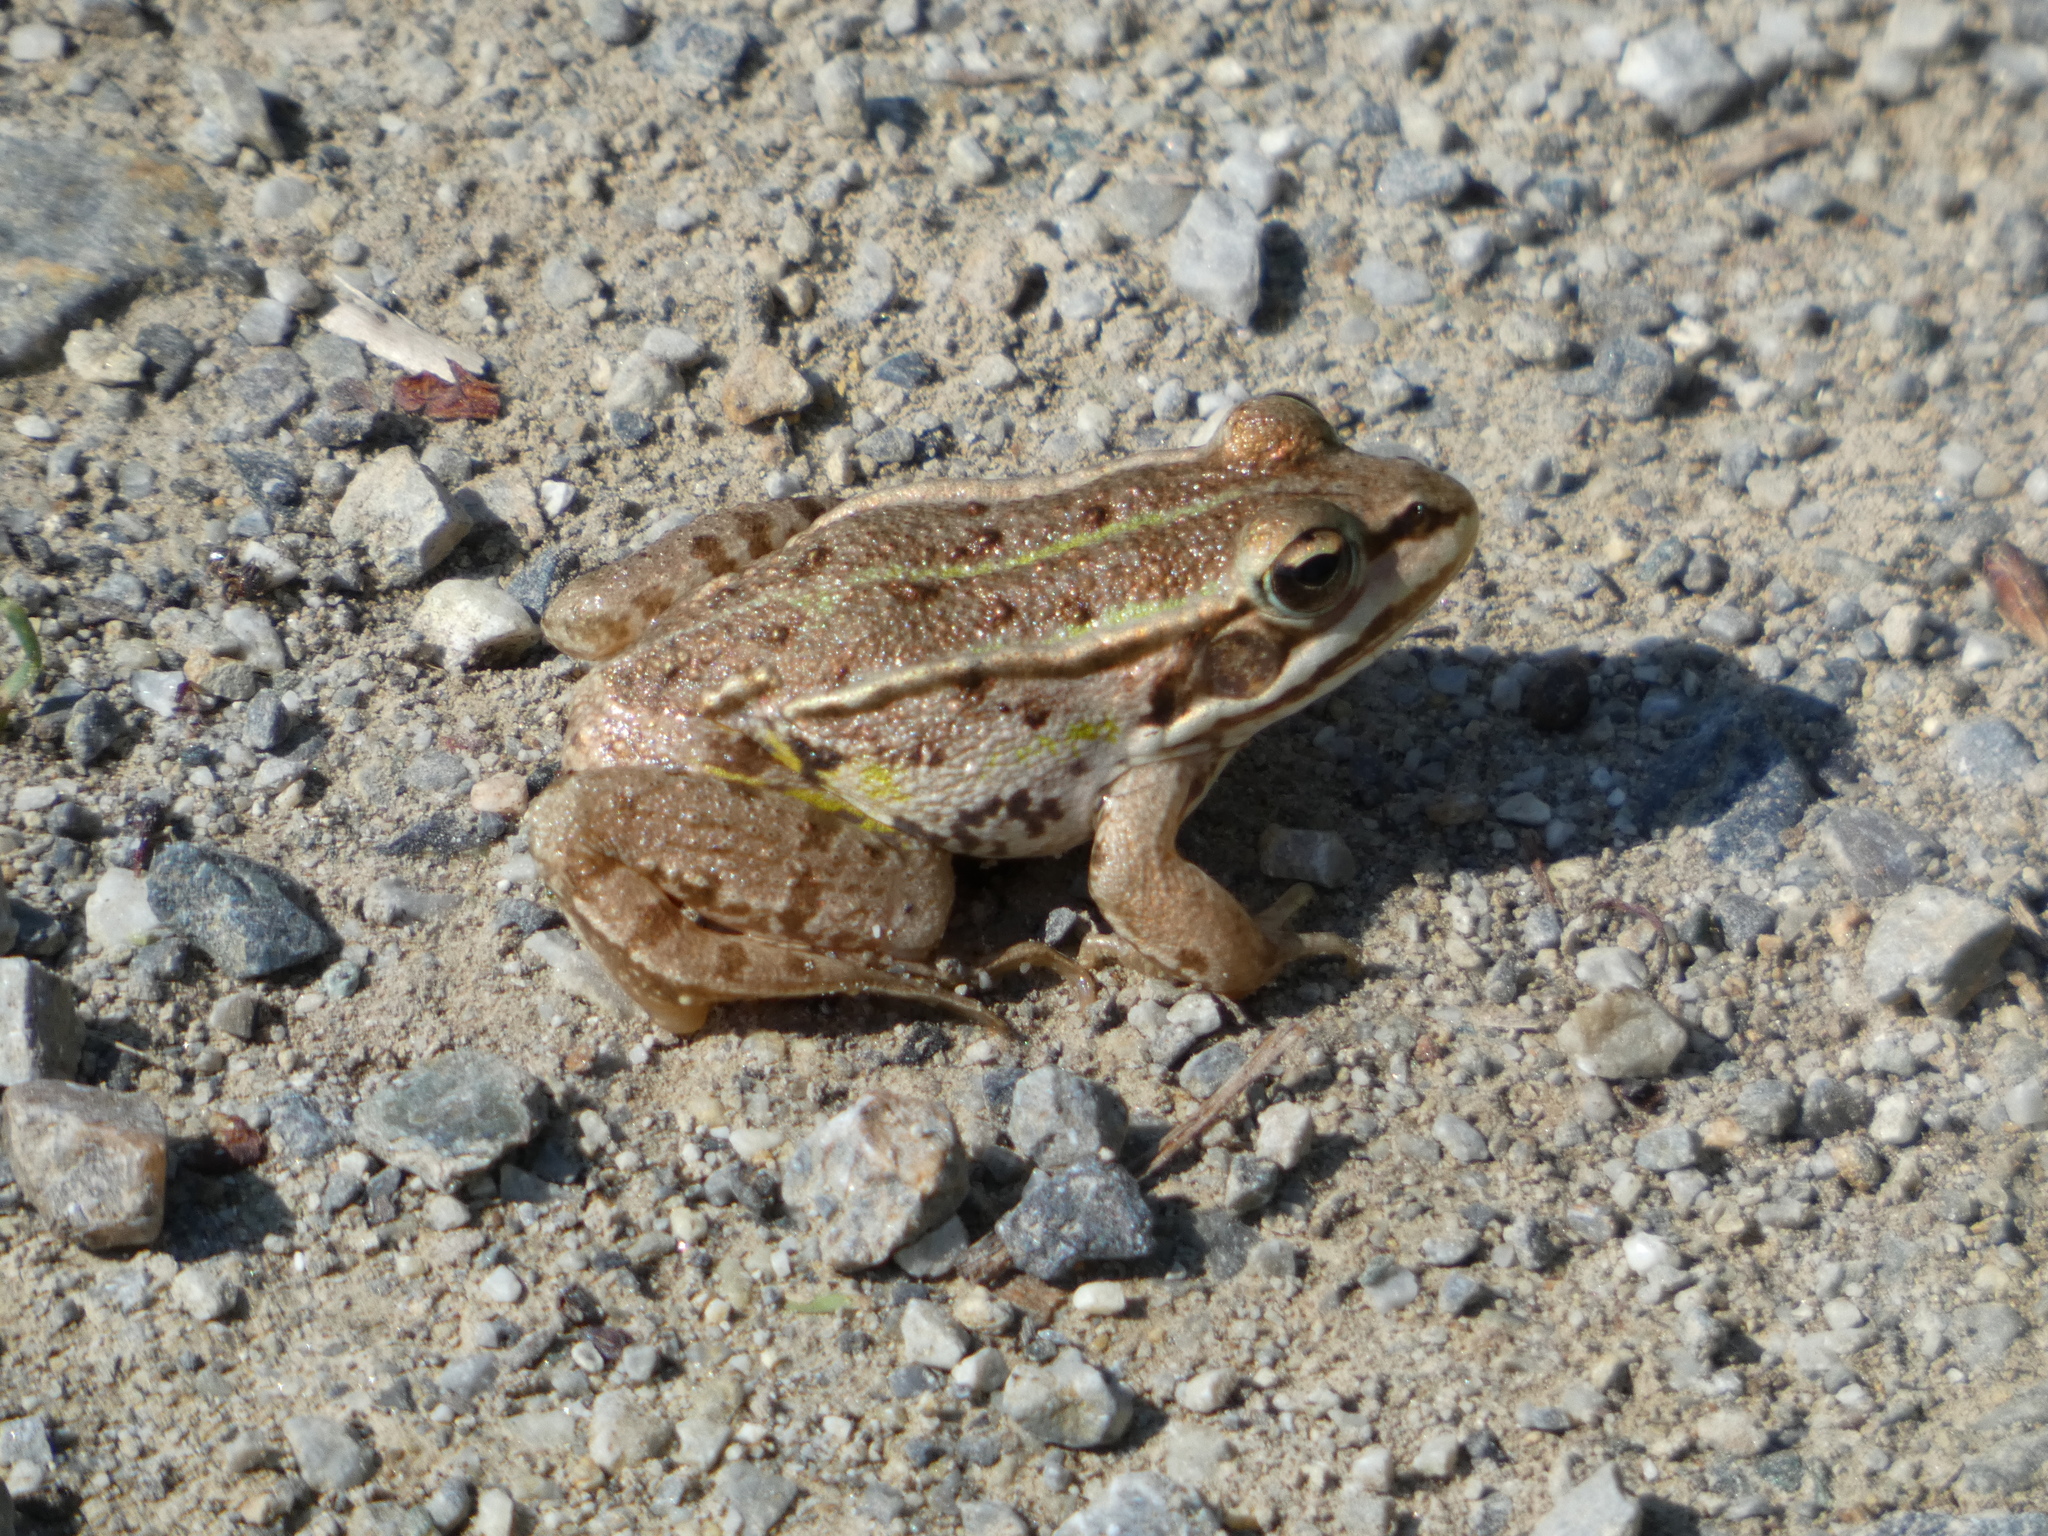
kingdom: Animalia
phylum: Chordata
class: Amphibia
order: Anura
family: Ranidae
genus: Pelophylax
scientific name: Pelophylax
